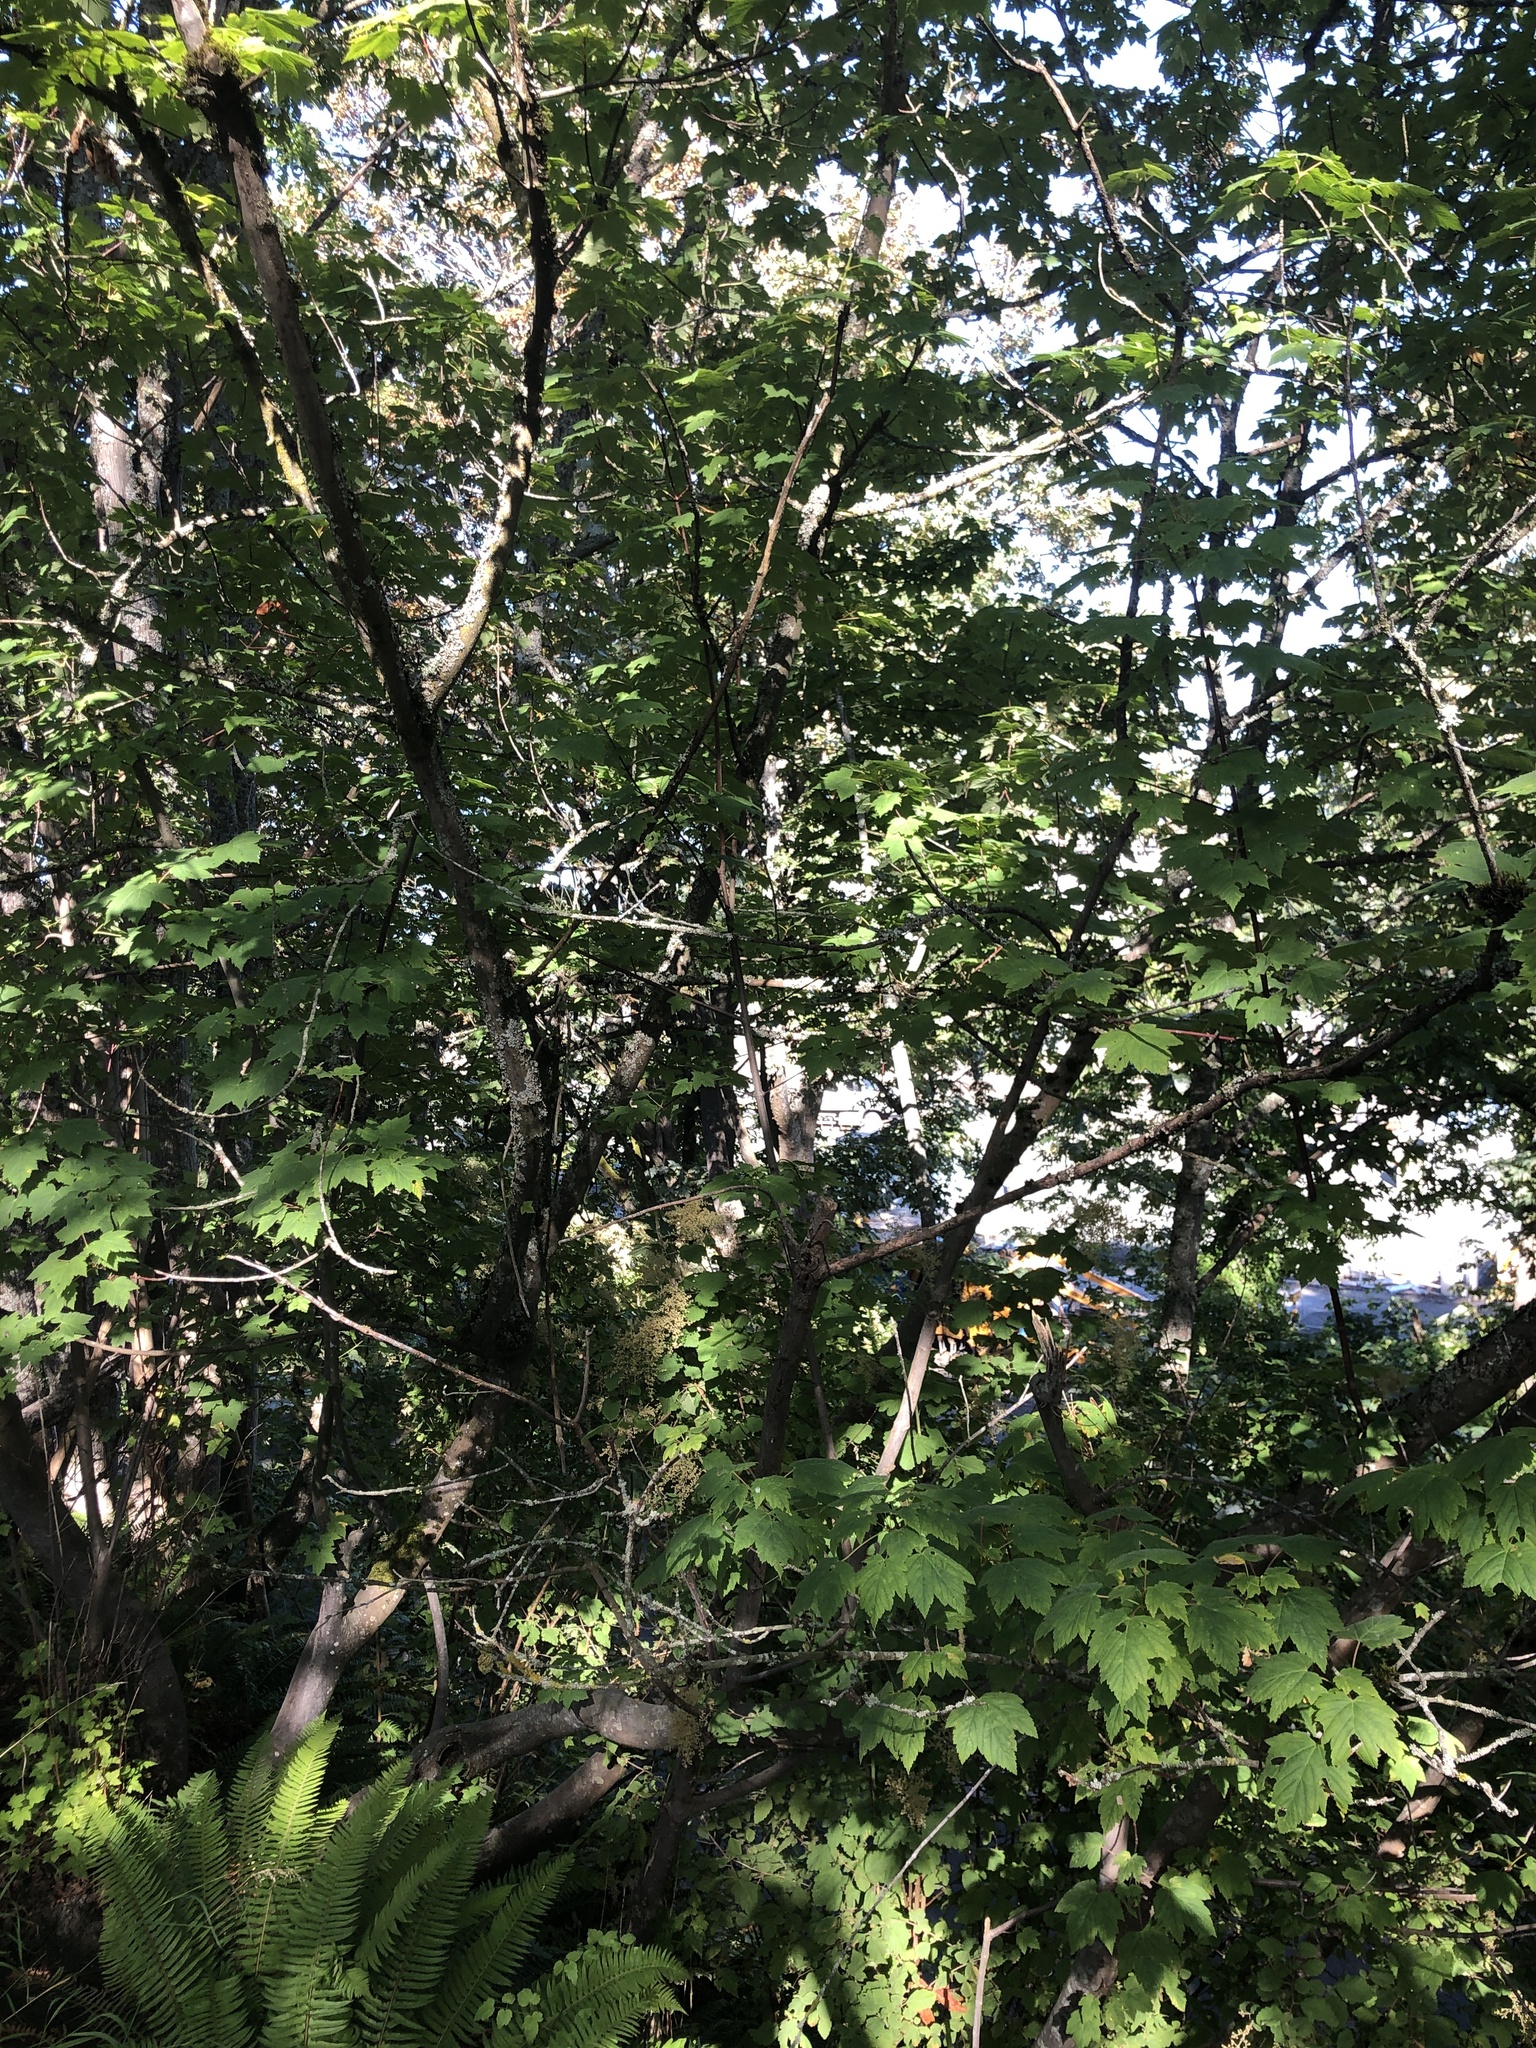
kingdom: Plantae
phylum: Tracheophyta
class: Magnoliopsida
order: Sapindales
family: Sapindaceae
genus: Acer
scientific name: Acer glabrum
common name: Rocky mountain maple
